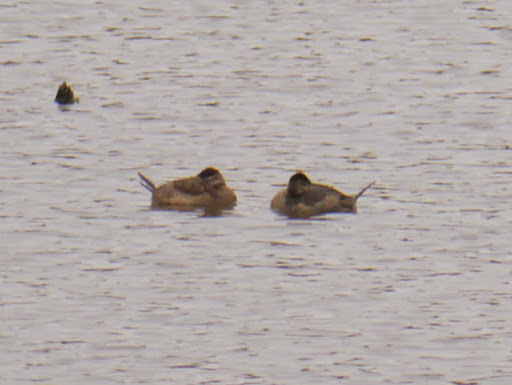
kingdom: Animalia
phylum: Chordata
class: Aves
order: Anseriformes
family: Anatidae
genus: Oxyura
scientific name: Oxyura jamaicensis
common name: Ruddy duck
